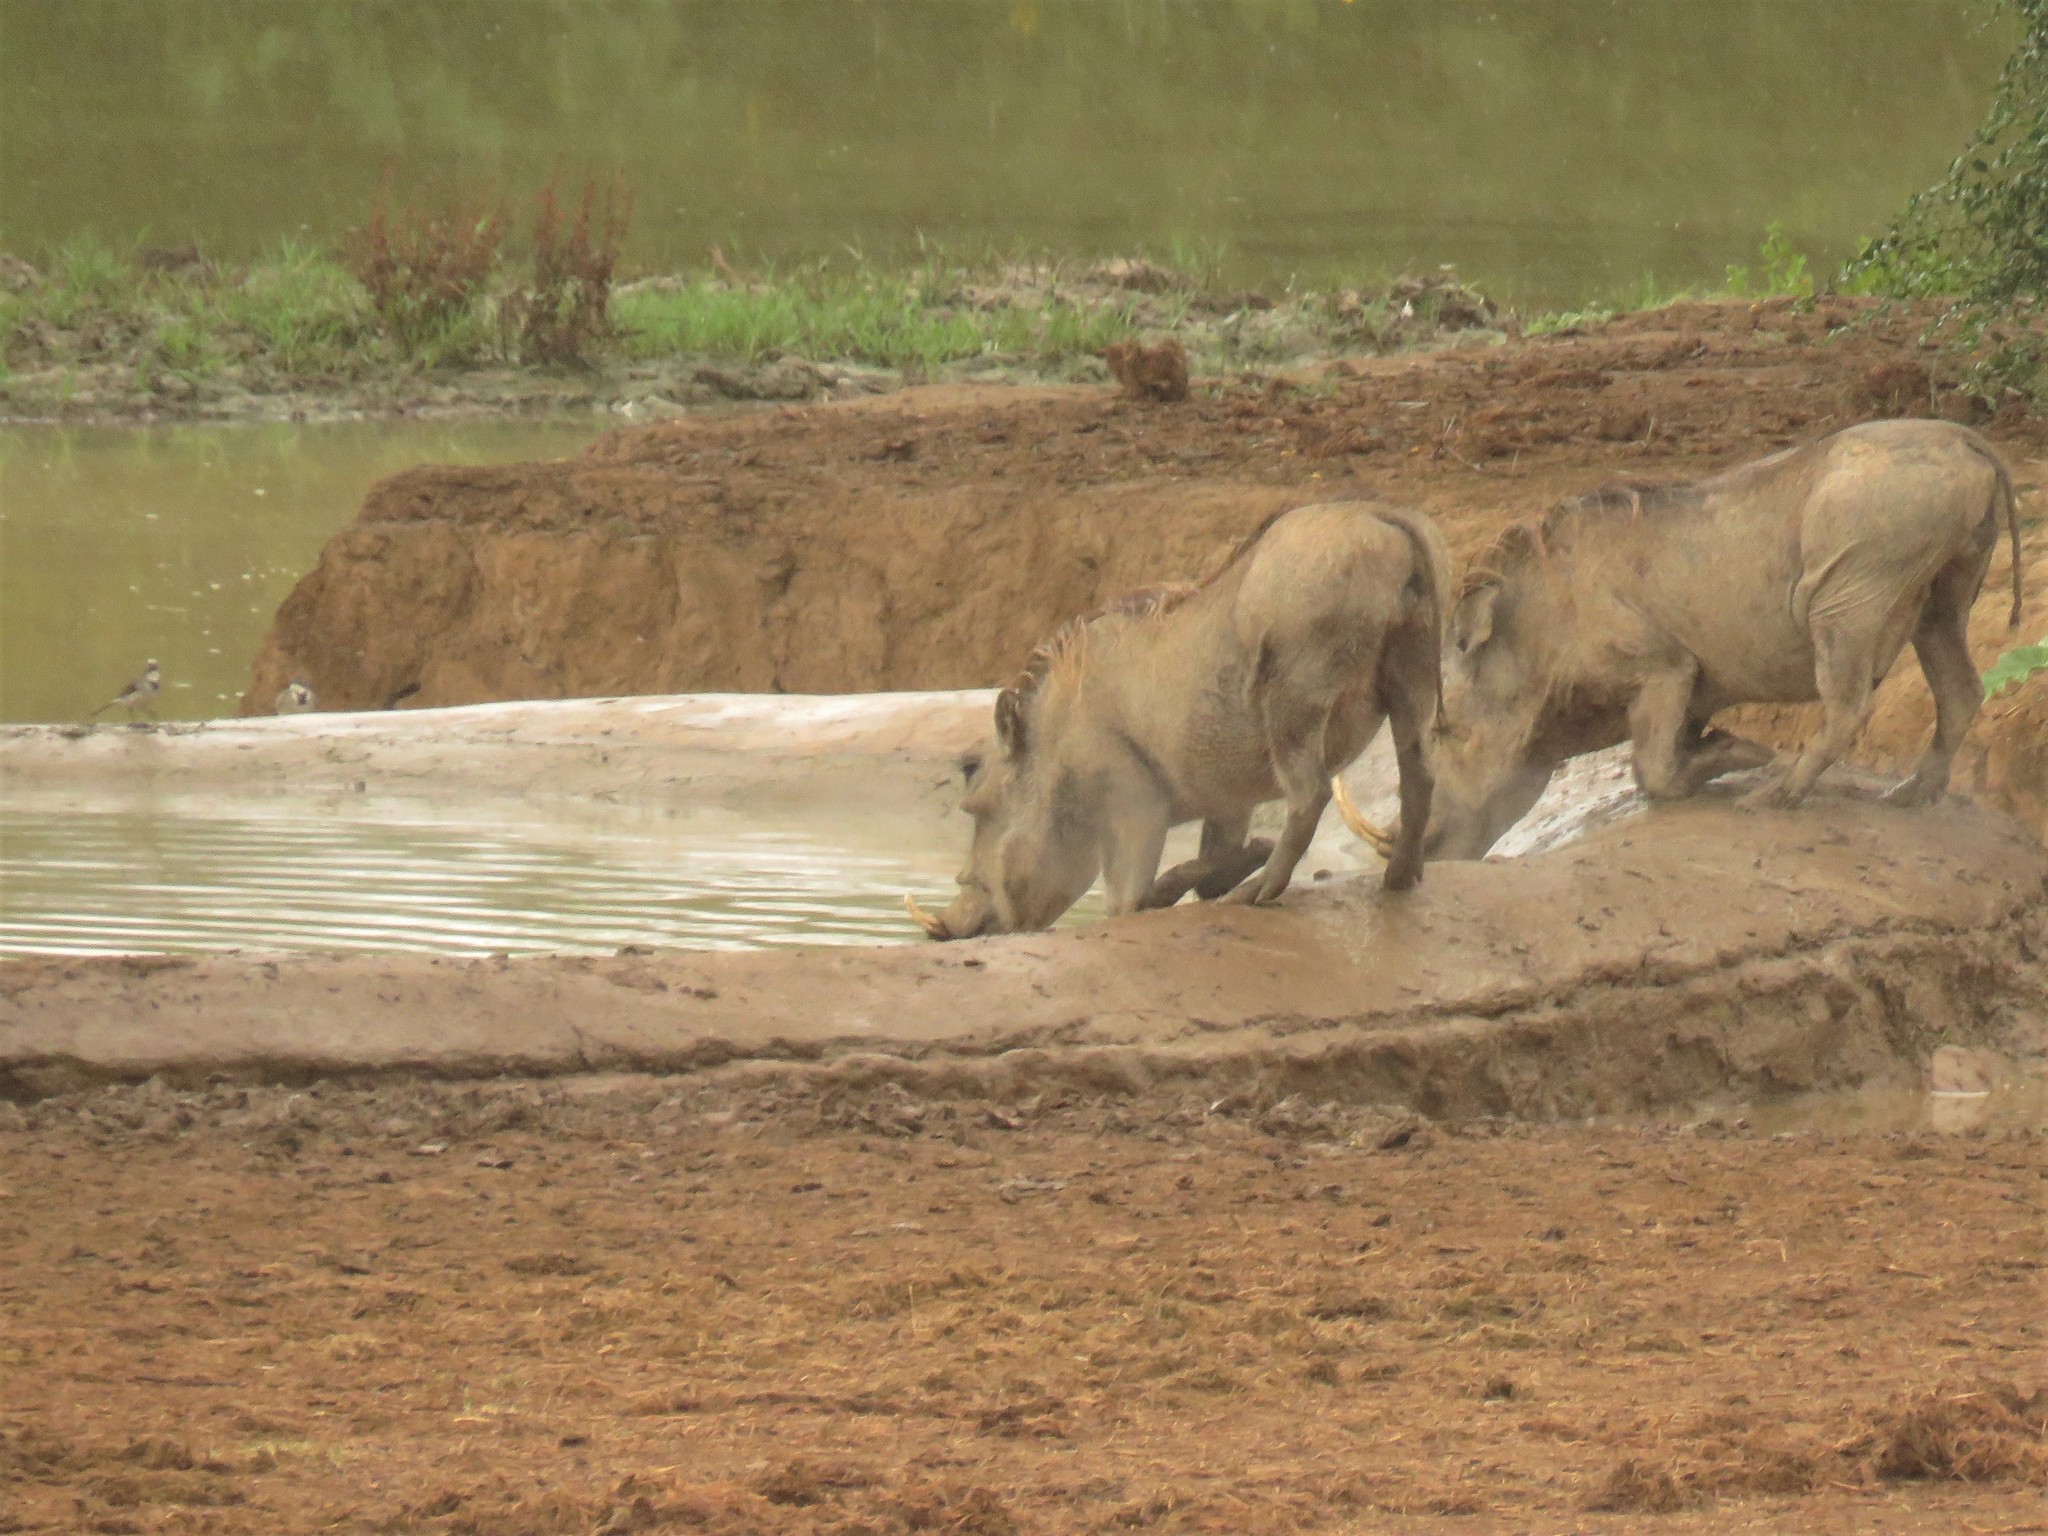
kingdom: Animalia
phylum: Chordata
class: Mammalia
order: Artiodactyla
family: Suidae
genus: Phacochoerus
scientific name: Phacochoerus africanus
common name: Common warthog
